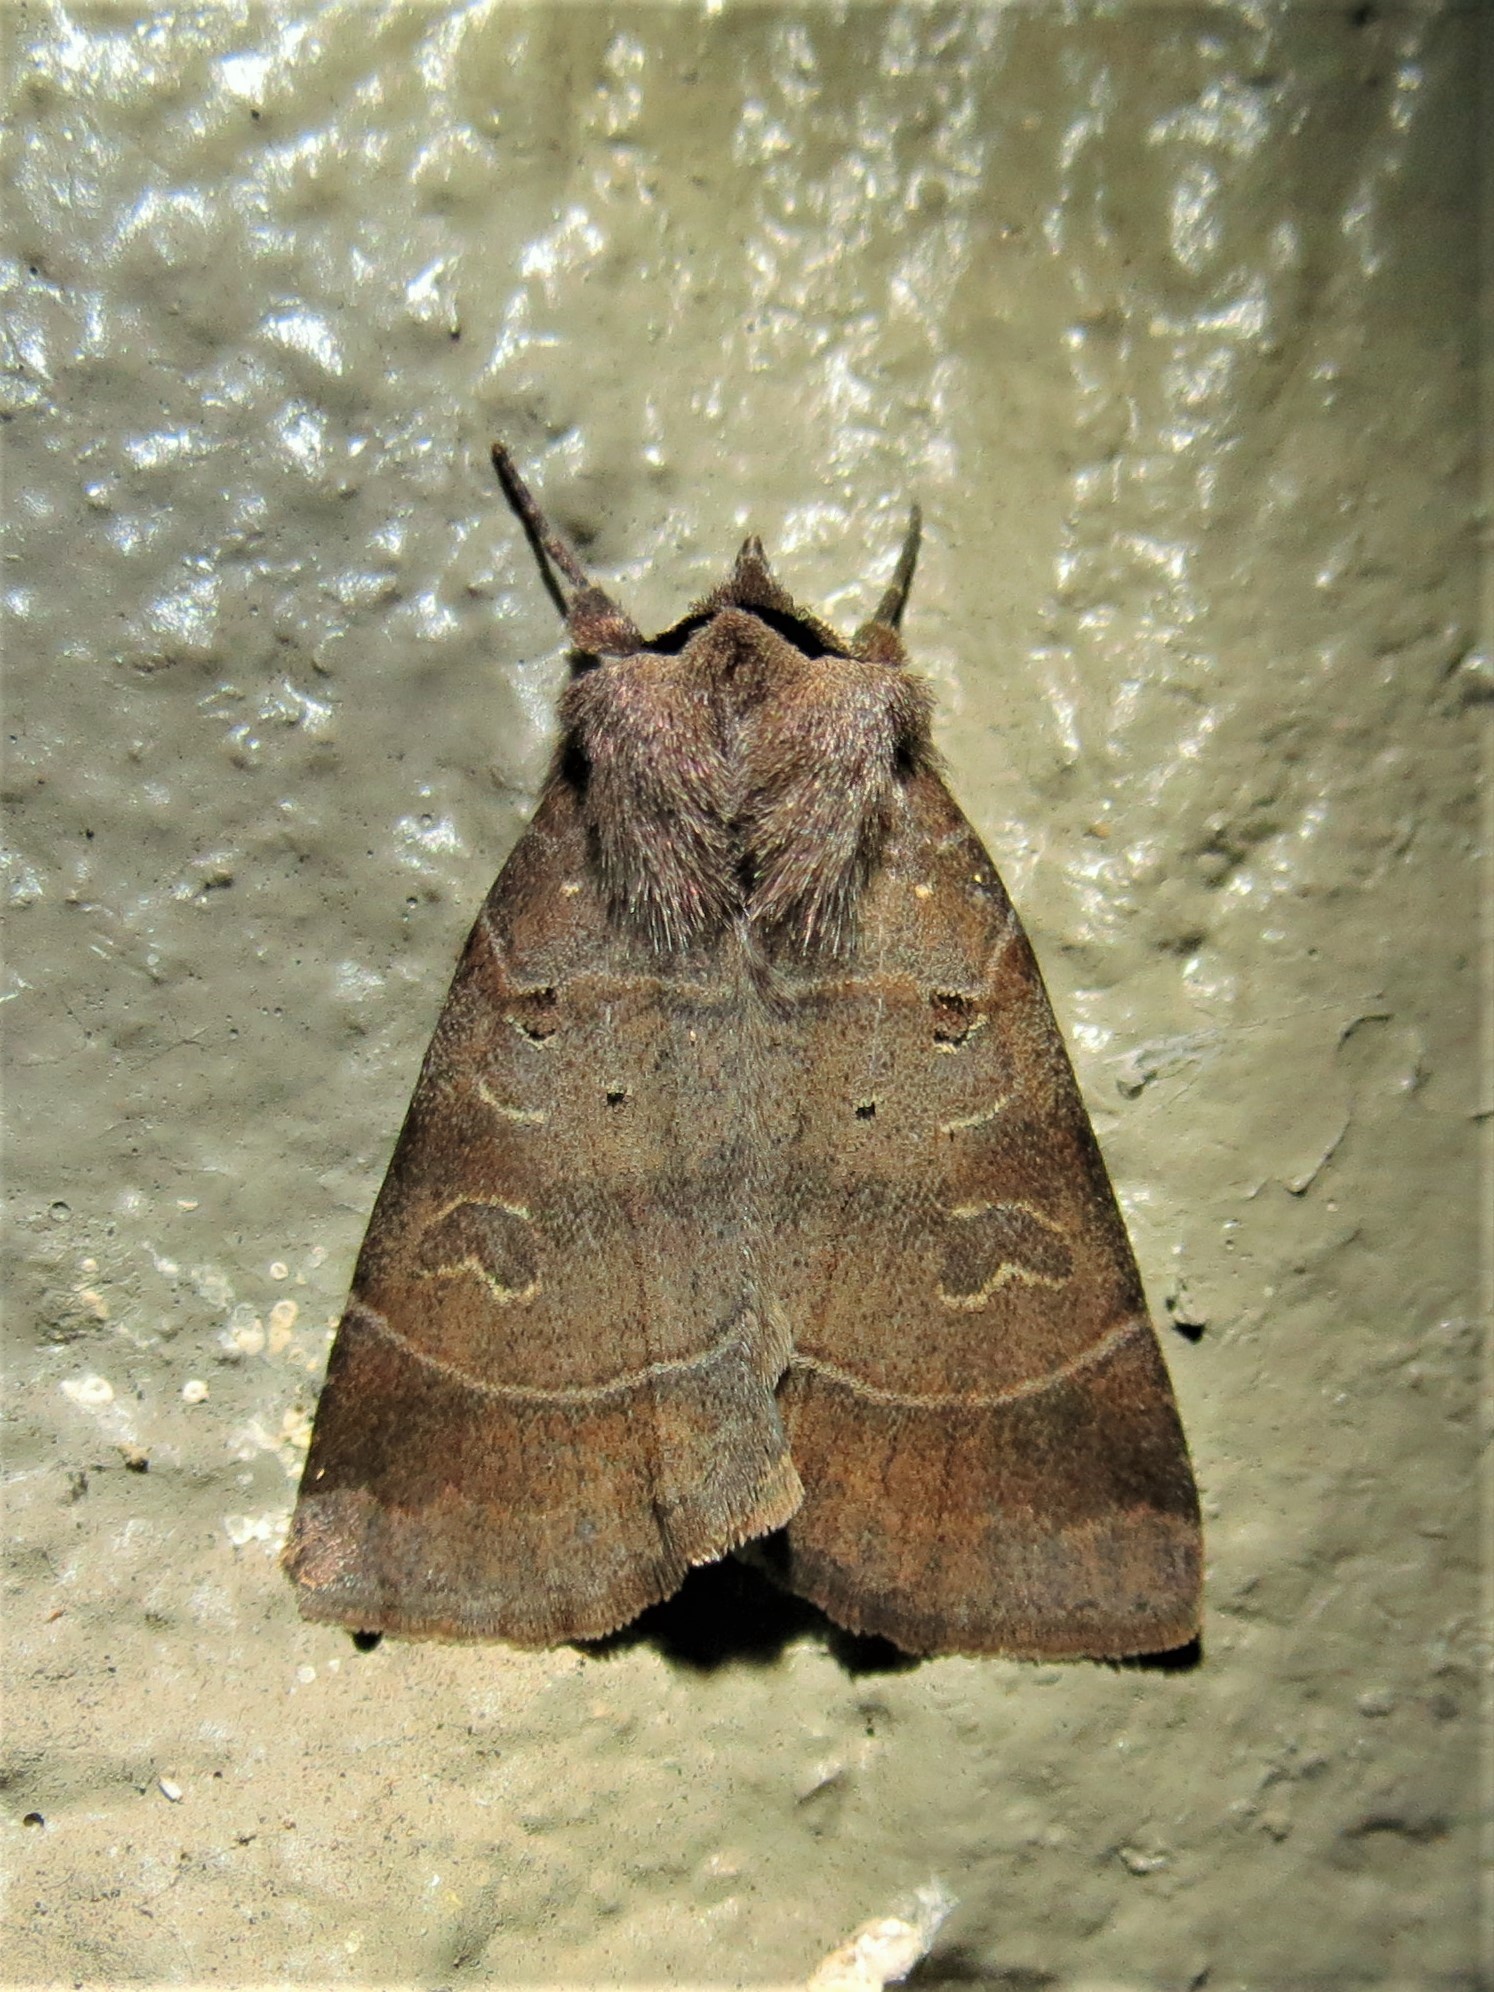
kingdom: Animalia
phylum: Arthropoda
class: Insecta
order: Lepidoptera
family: Noctuidae
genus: Agnorisma
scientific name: Agnorisma badinodis
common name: Pale-banded dart
